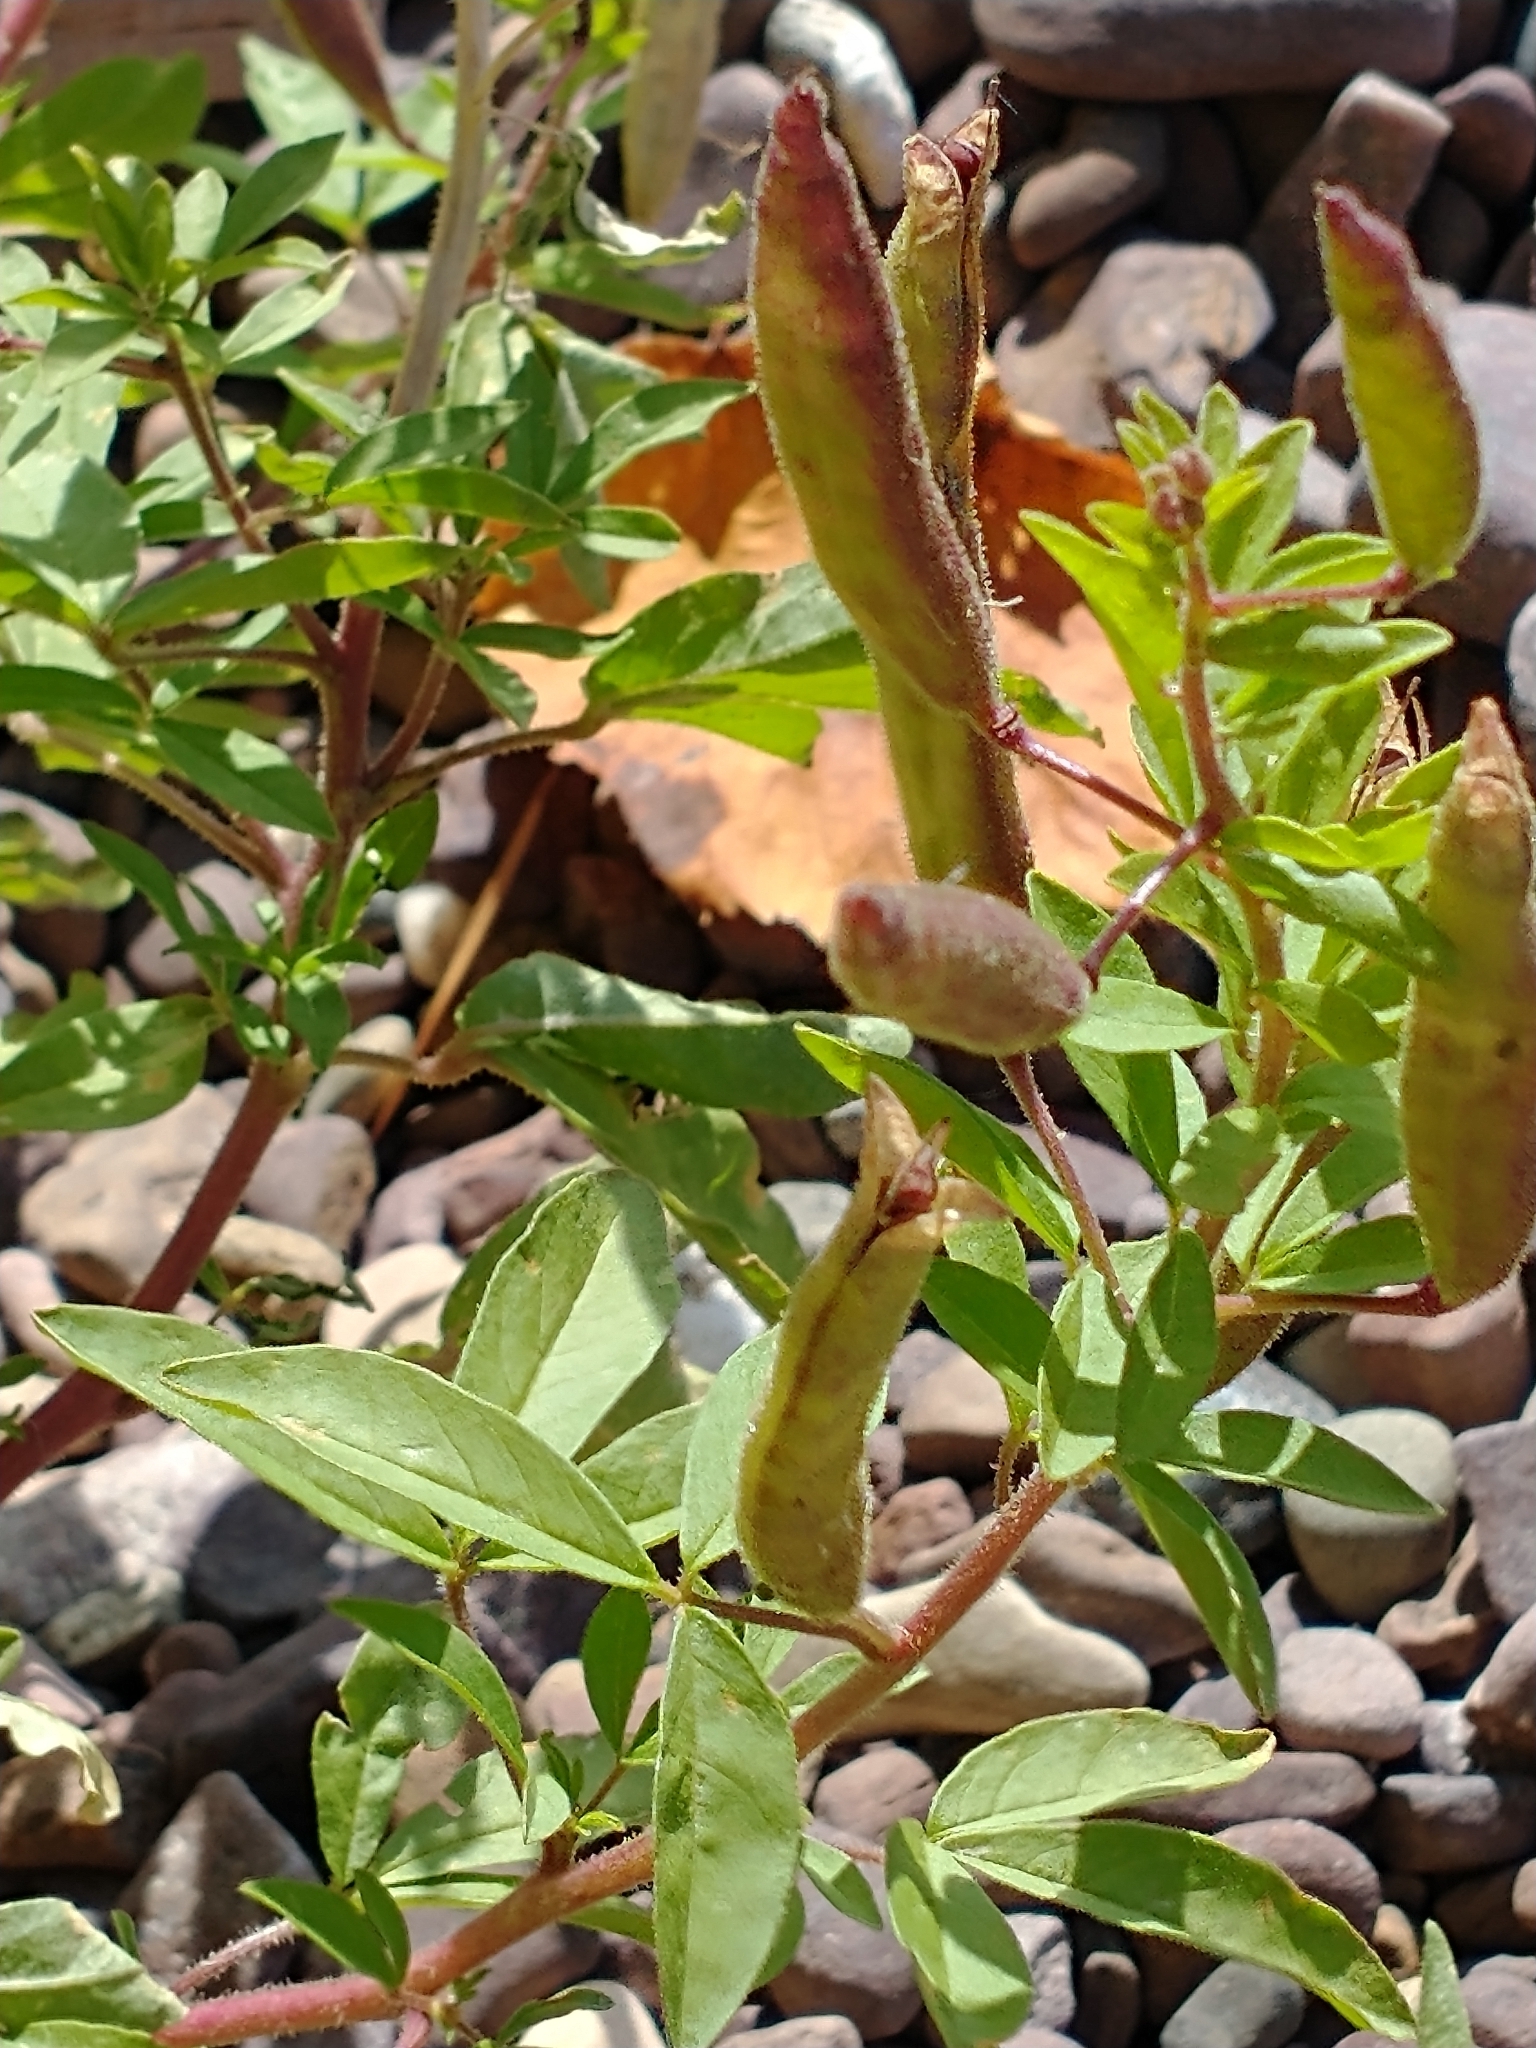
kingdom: Plantae
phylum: Tracheophyta
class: Magnoliopsida
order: Brassicales
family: Cleomaceae
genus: Polanisia
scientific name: Polanisia dodecandra
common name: Clammyweed
